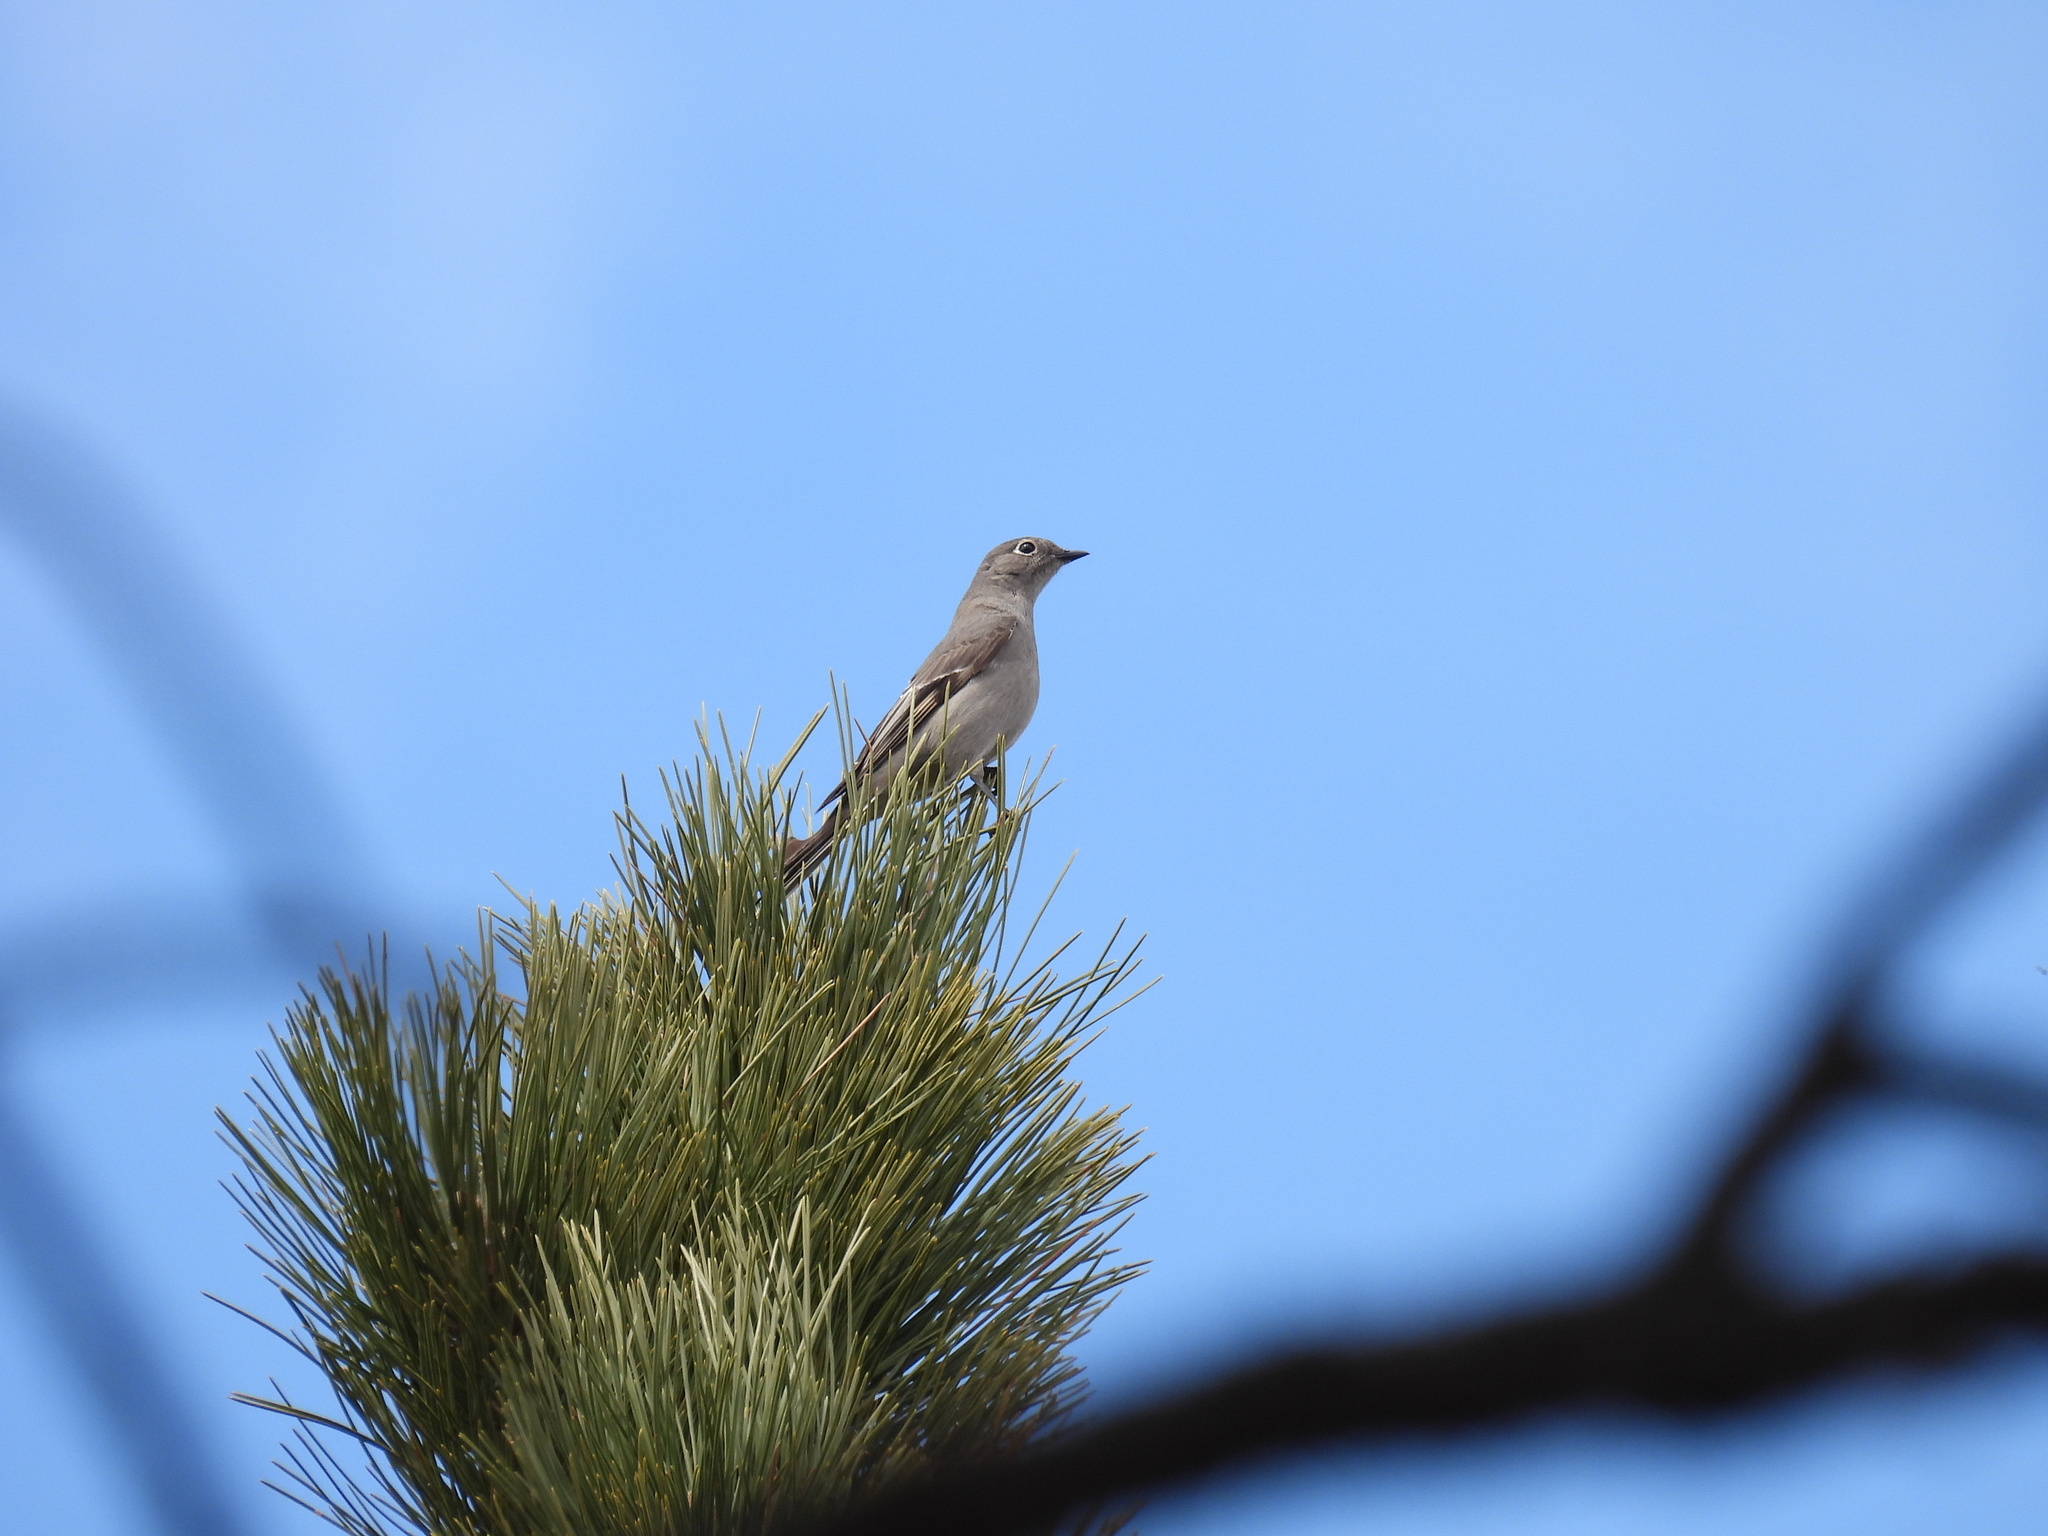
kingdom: Animalia
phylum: Chordata
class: Aves
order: Passeriformes
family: Turdidae
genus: Myadestes
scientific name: Myadestes townsendi
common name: Townsend's solitaire
